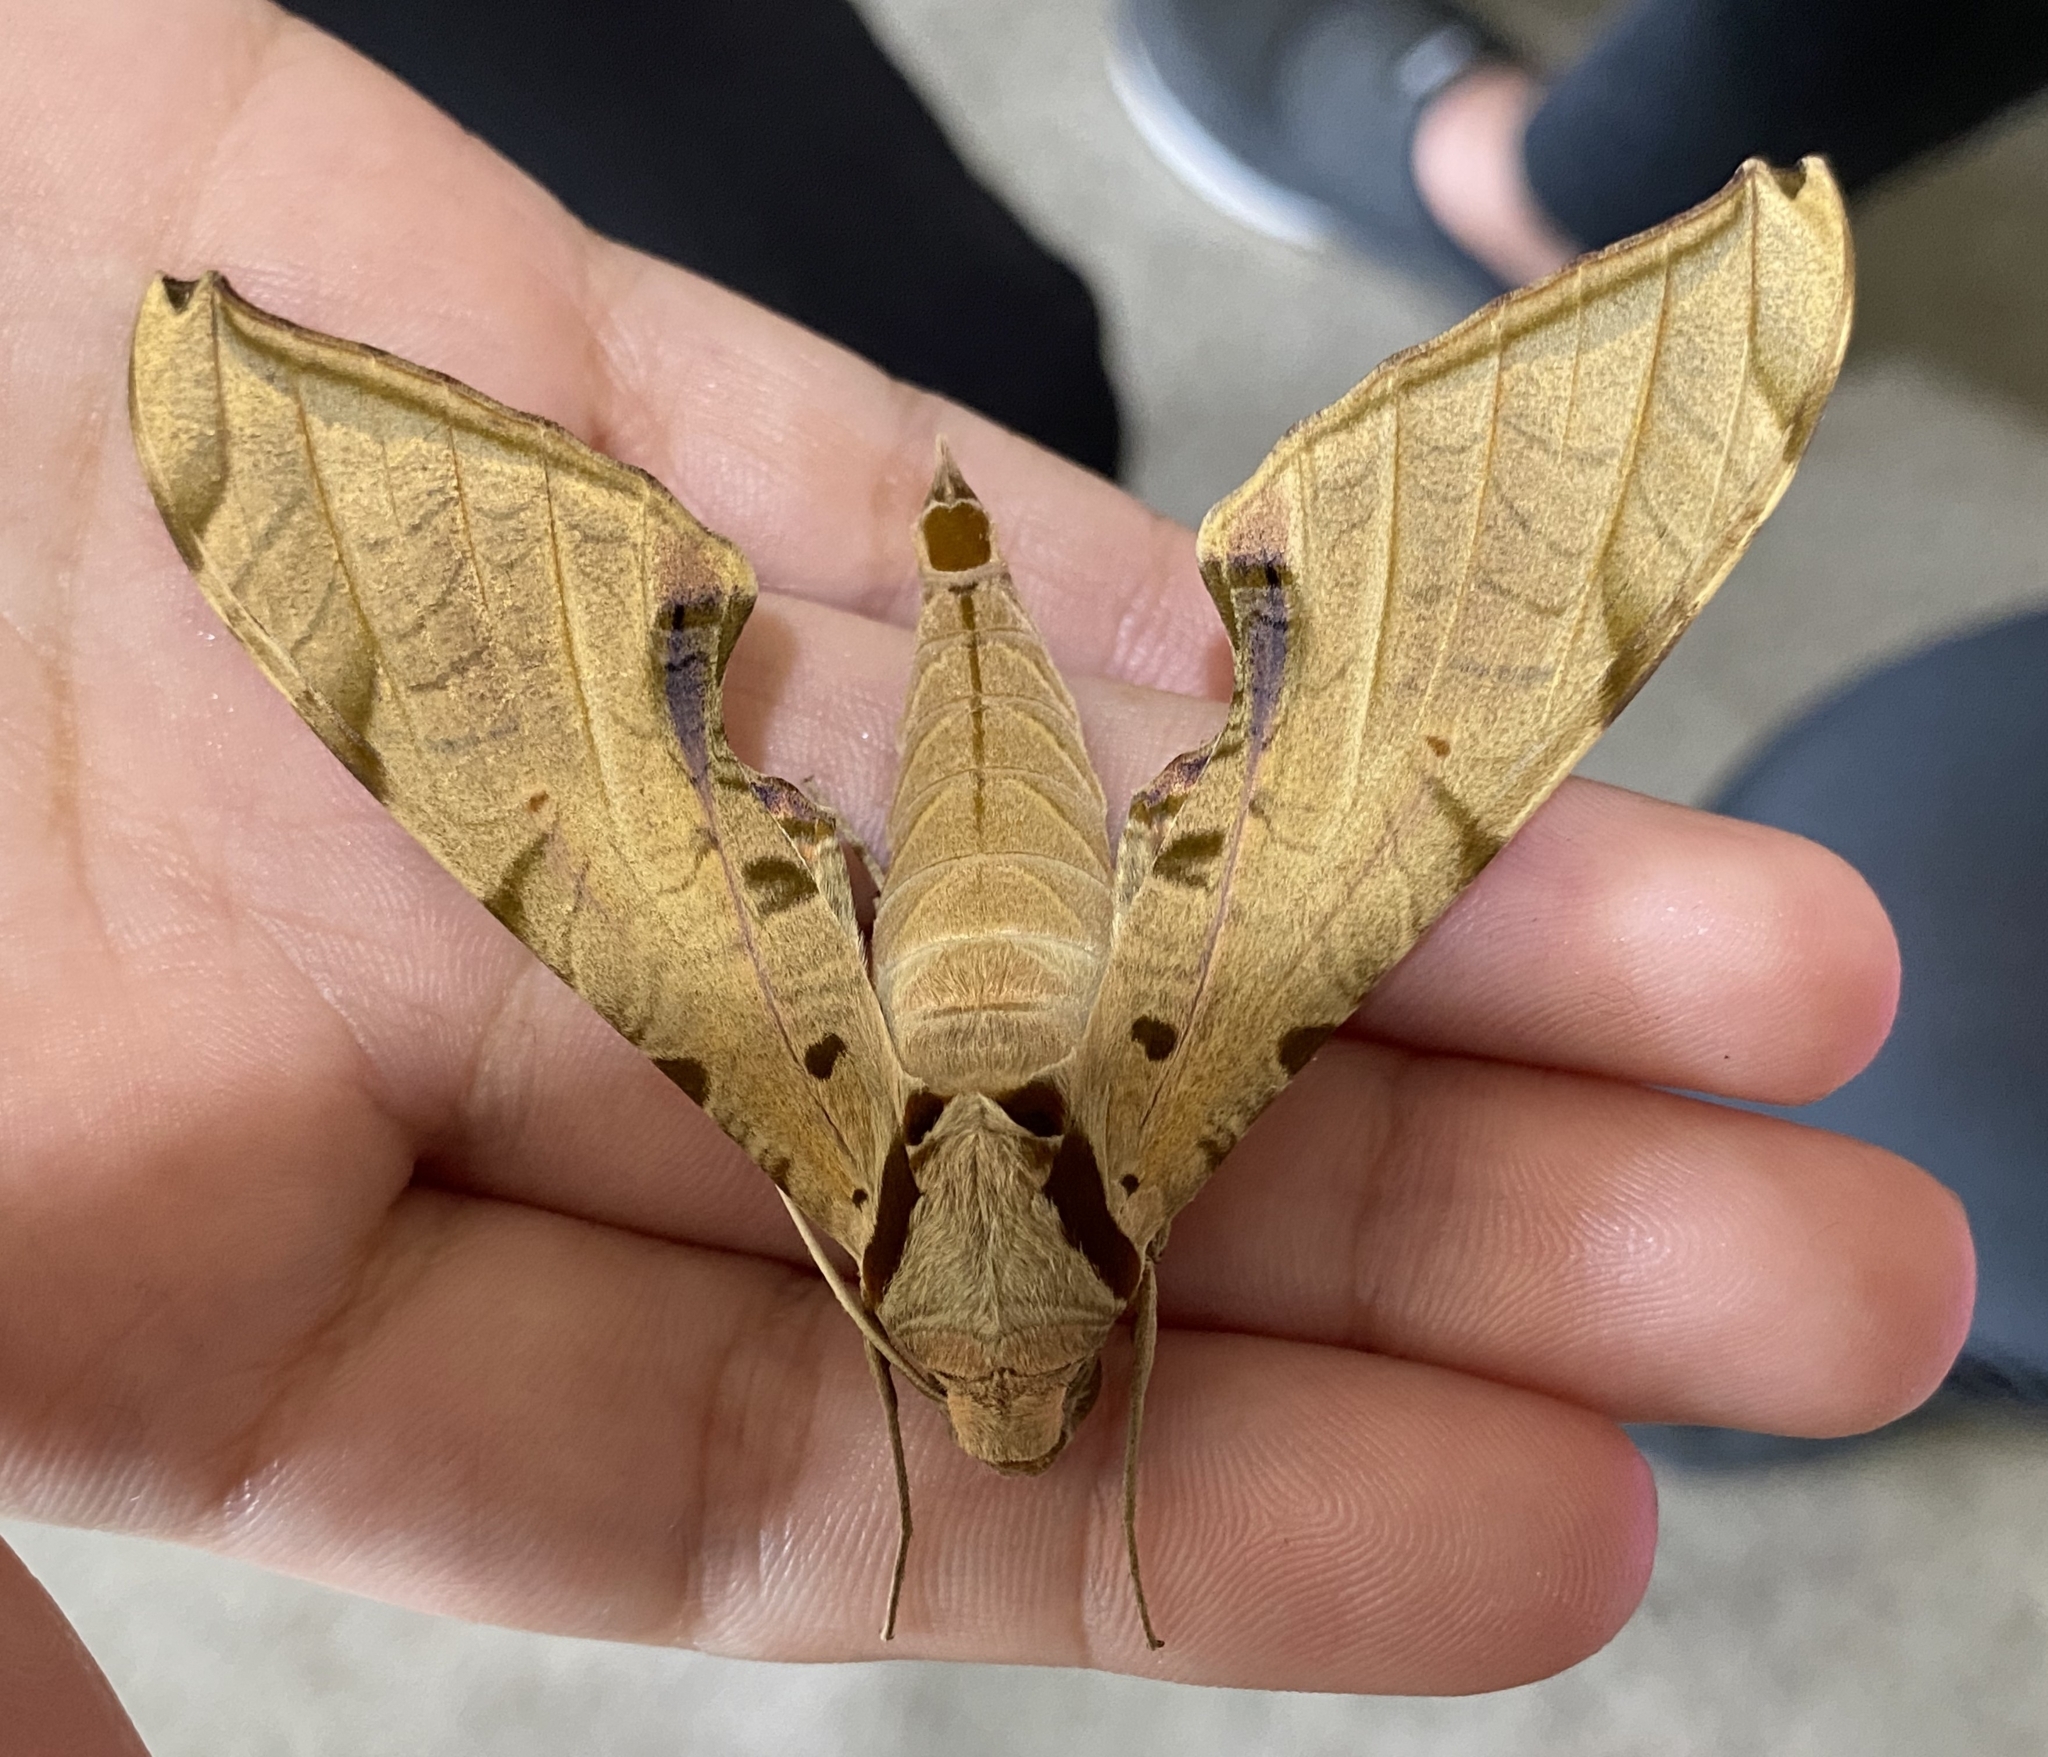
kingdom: Animalia
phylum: Arthropoda
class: Insecta
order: Lepidoptera
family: Sphingidae
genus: Protambulyx
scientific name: Protambulyx strigilis
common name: Streaked sphinx
